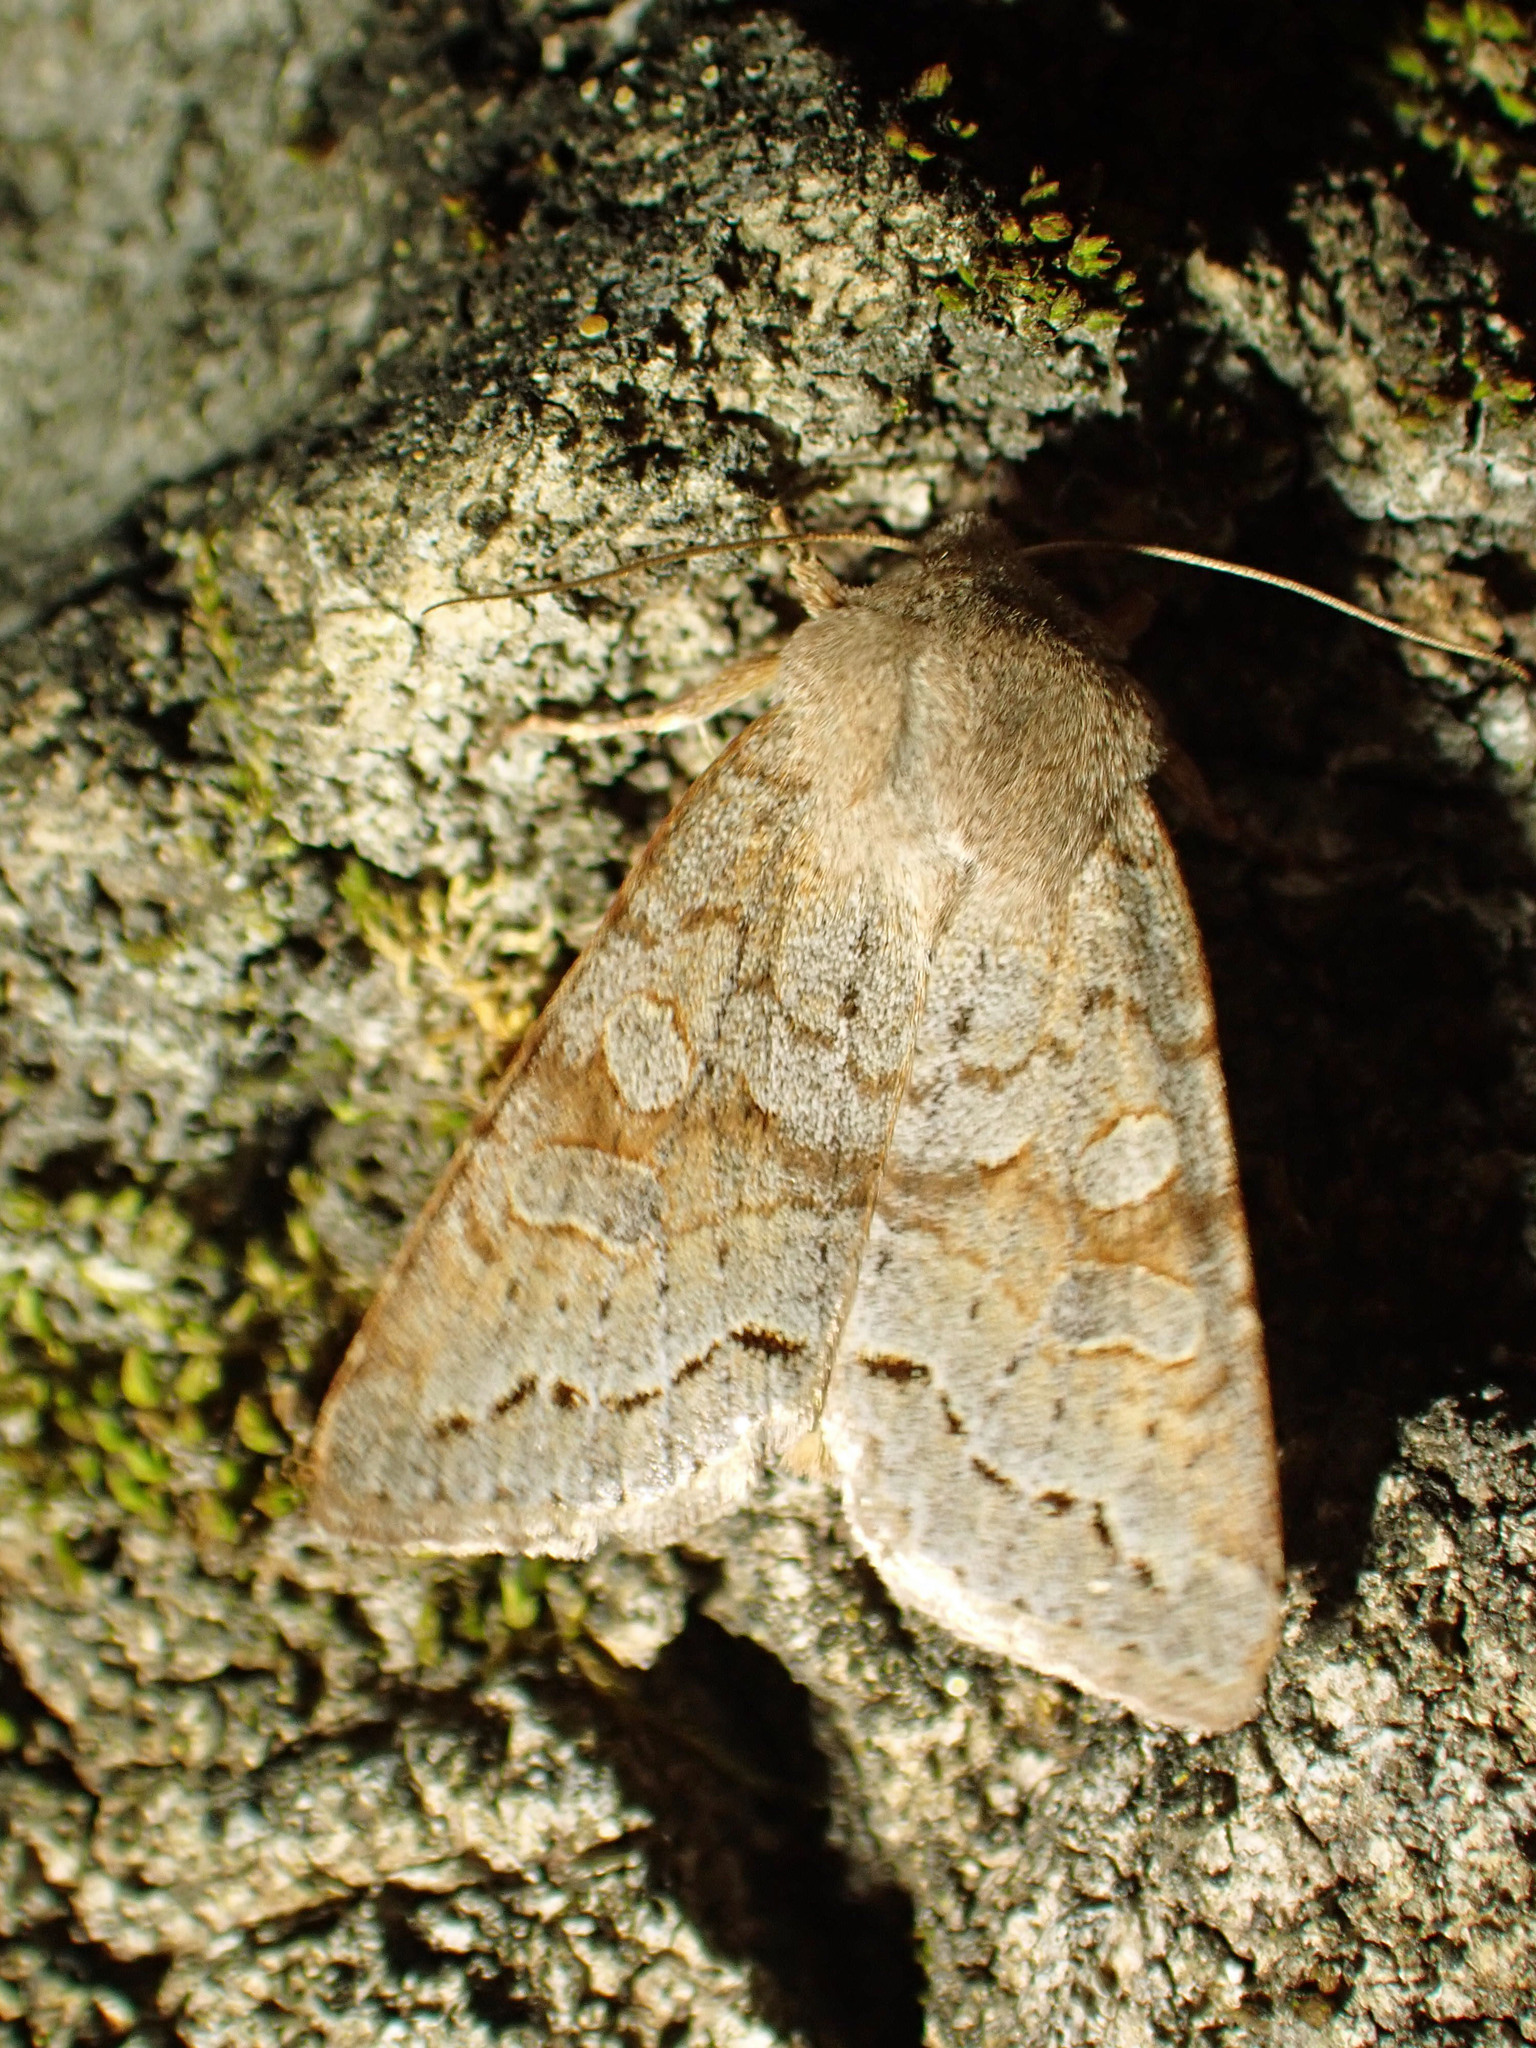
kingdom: Animalia
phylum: Arthropoda
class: Insecta
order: Lepidoptera
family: Noctuidae
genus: Orthosia
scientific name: Orthosia revicta
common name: Rusty whitesided caterpillar
